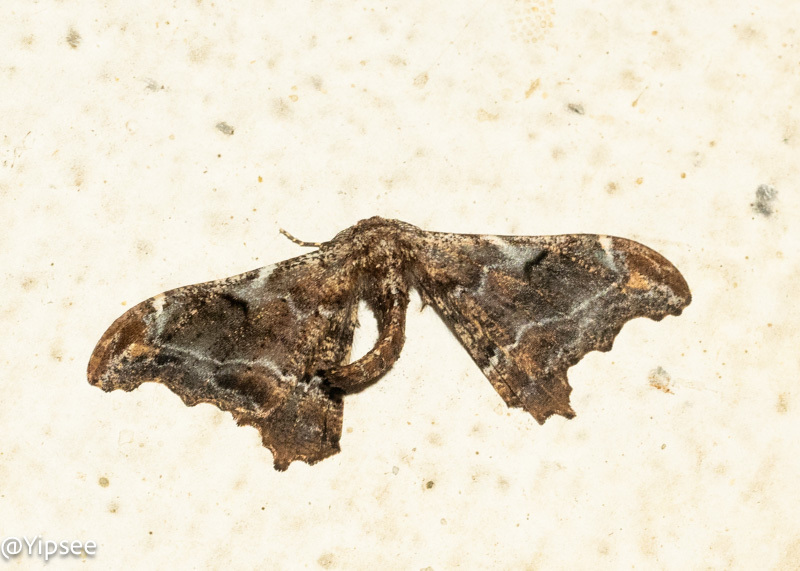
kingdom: Animalia
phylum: Arthropoda
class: Insecta
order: Lepidoptera
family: Geometridae
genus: Hyposidra
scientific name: Hyposidra violescens
